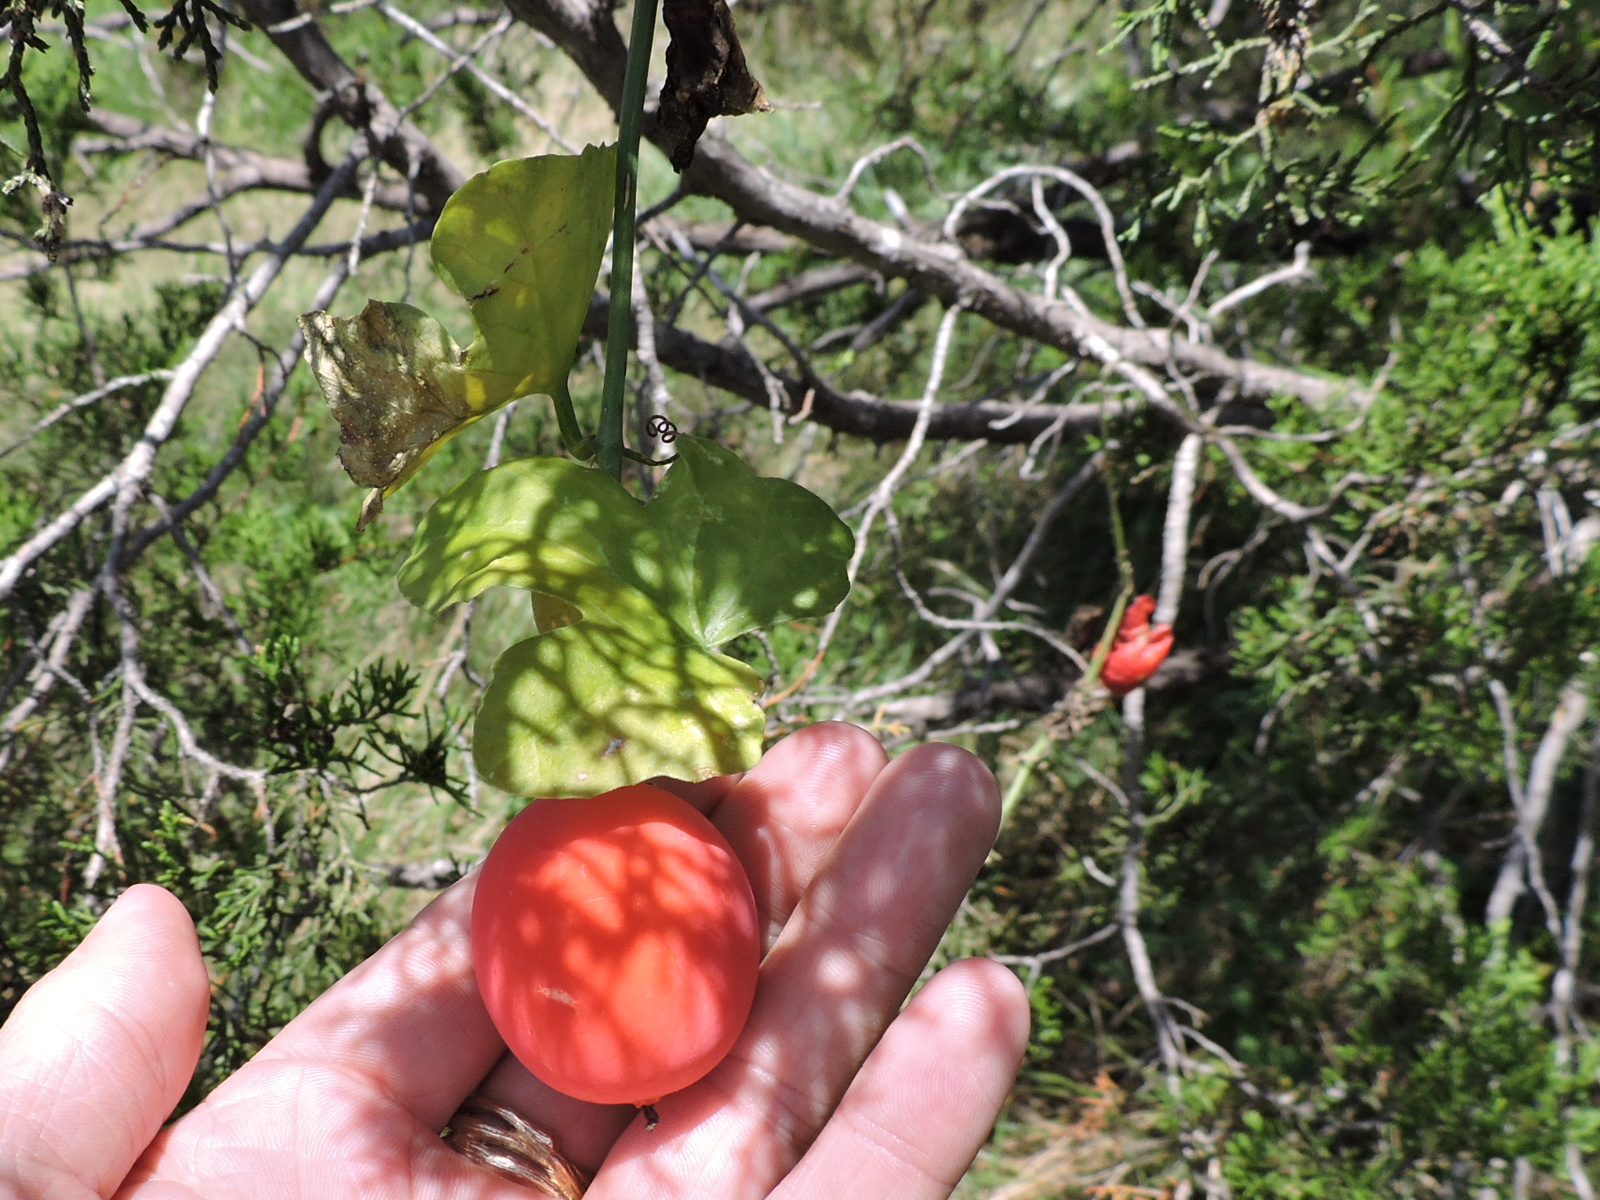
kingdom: Plantae
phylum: Tracheophyta
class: Magnoliopsida
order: Cucurbitales
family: Cucurbitaceae
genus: Ibervillea
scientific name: Ibervillea lindheimeri
